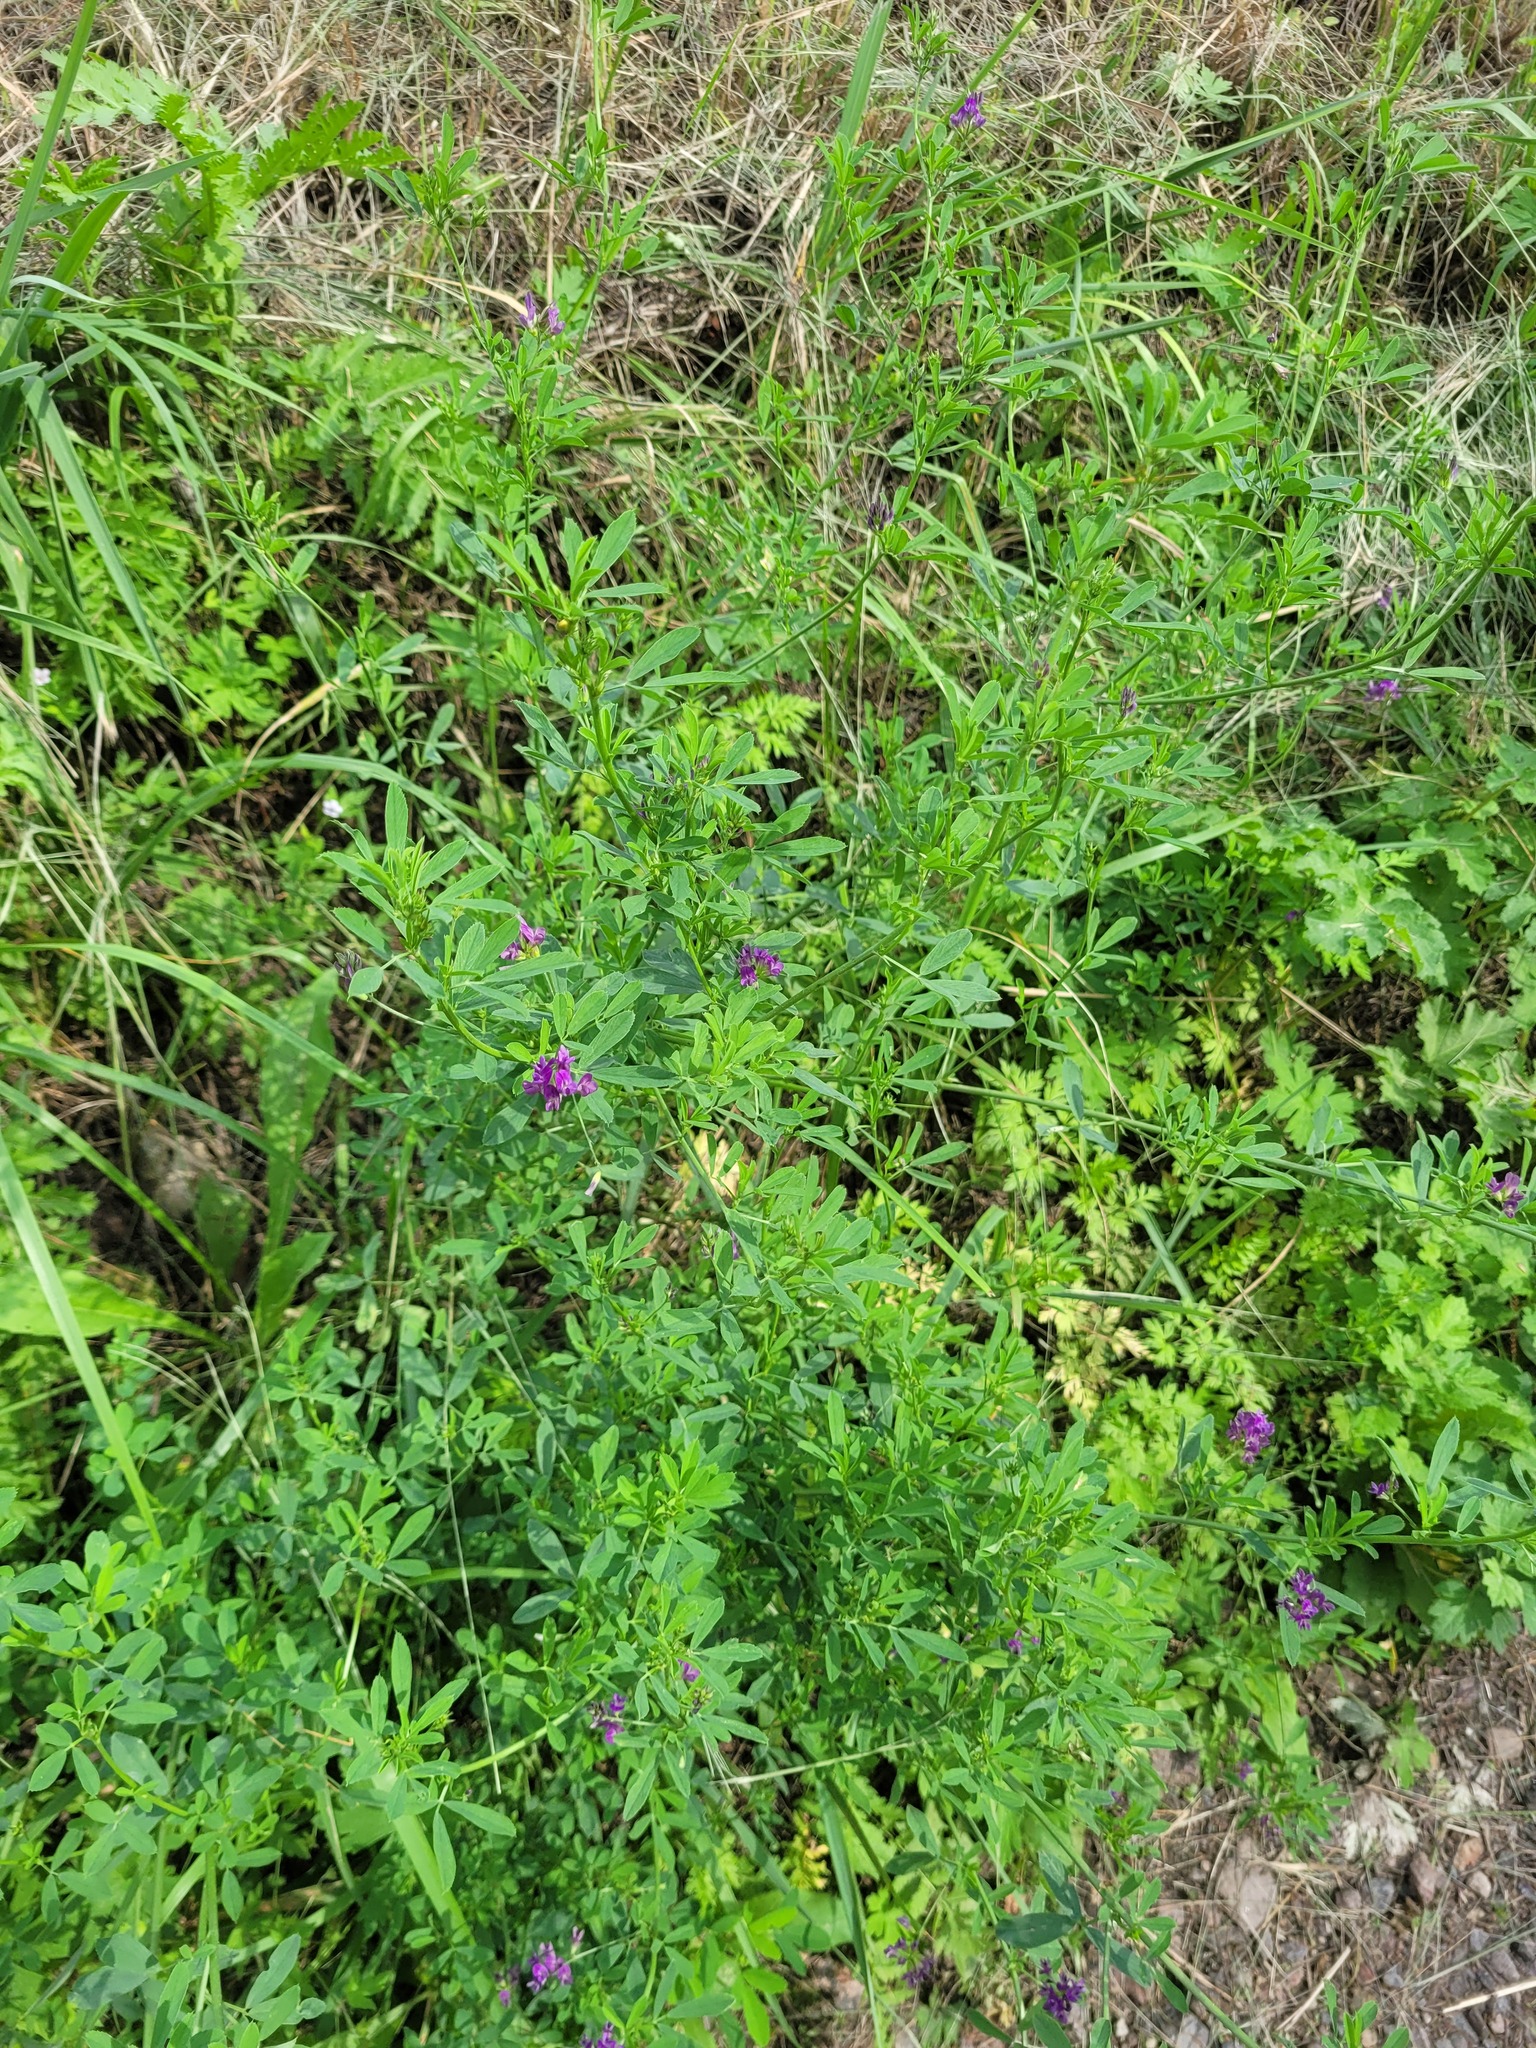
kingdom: Plantae
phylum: Tracheophyta
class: Magnoliopsida
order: Fabales
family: Fabaceae
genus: Medicago
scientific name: Medicago sativa
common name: Alfalfa
